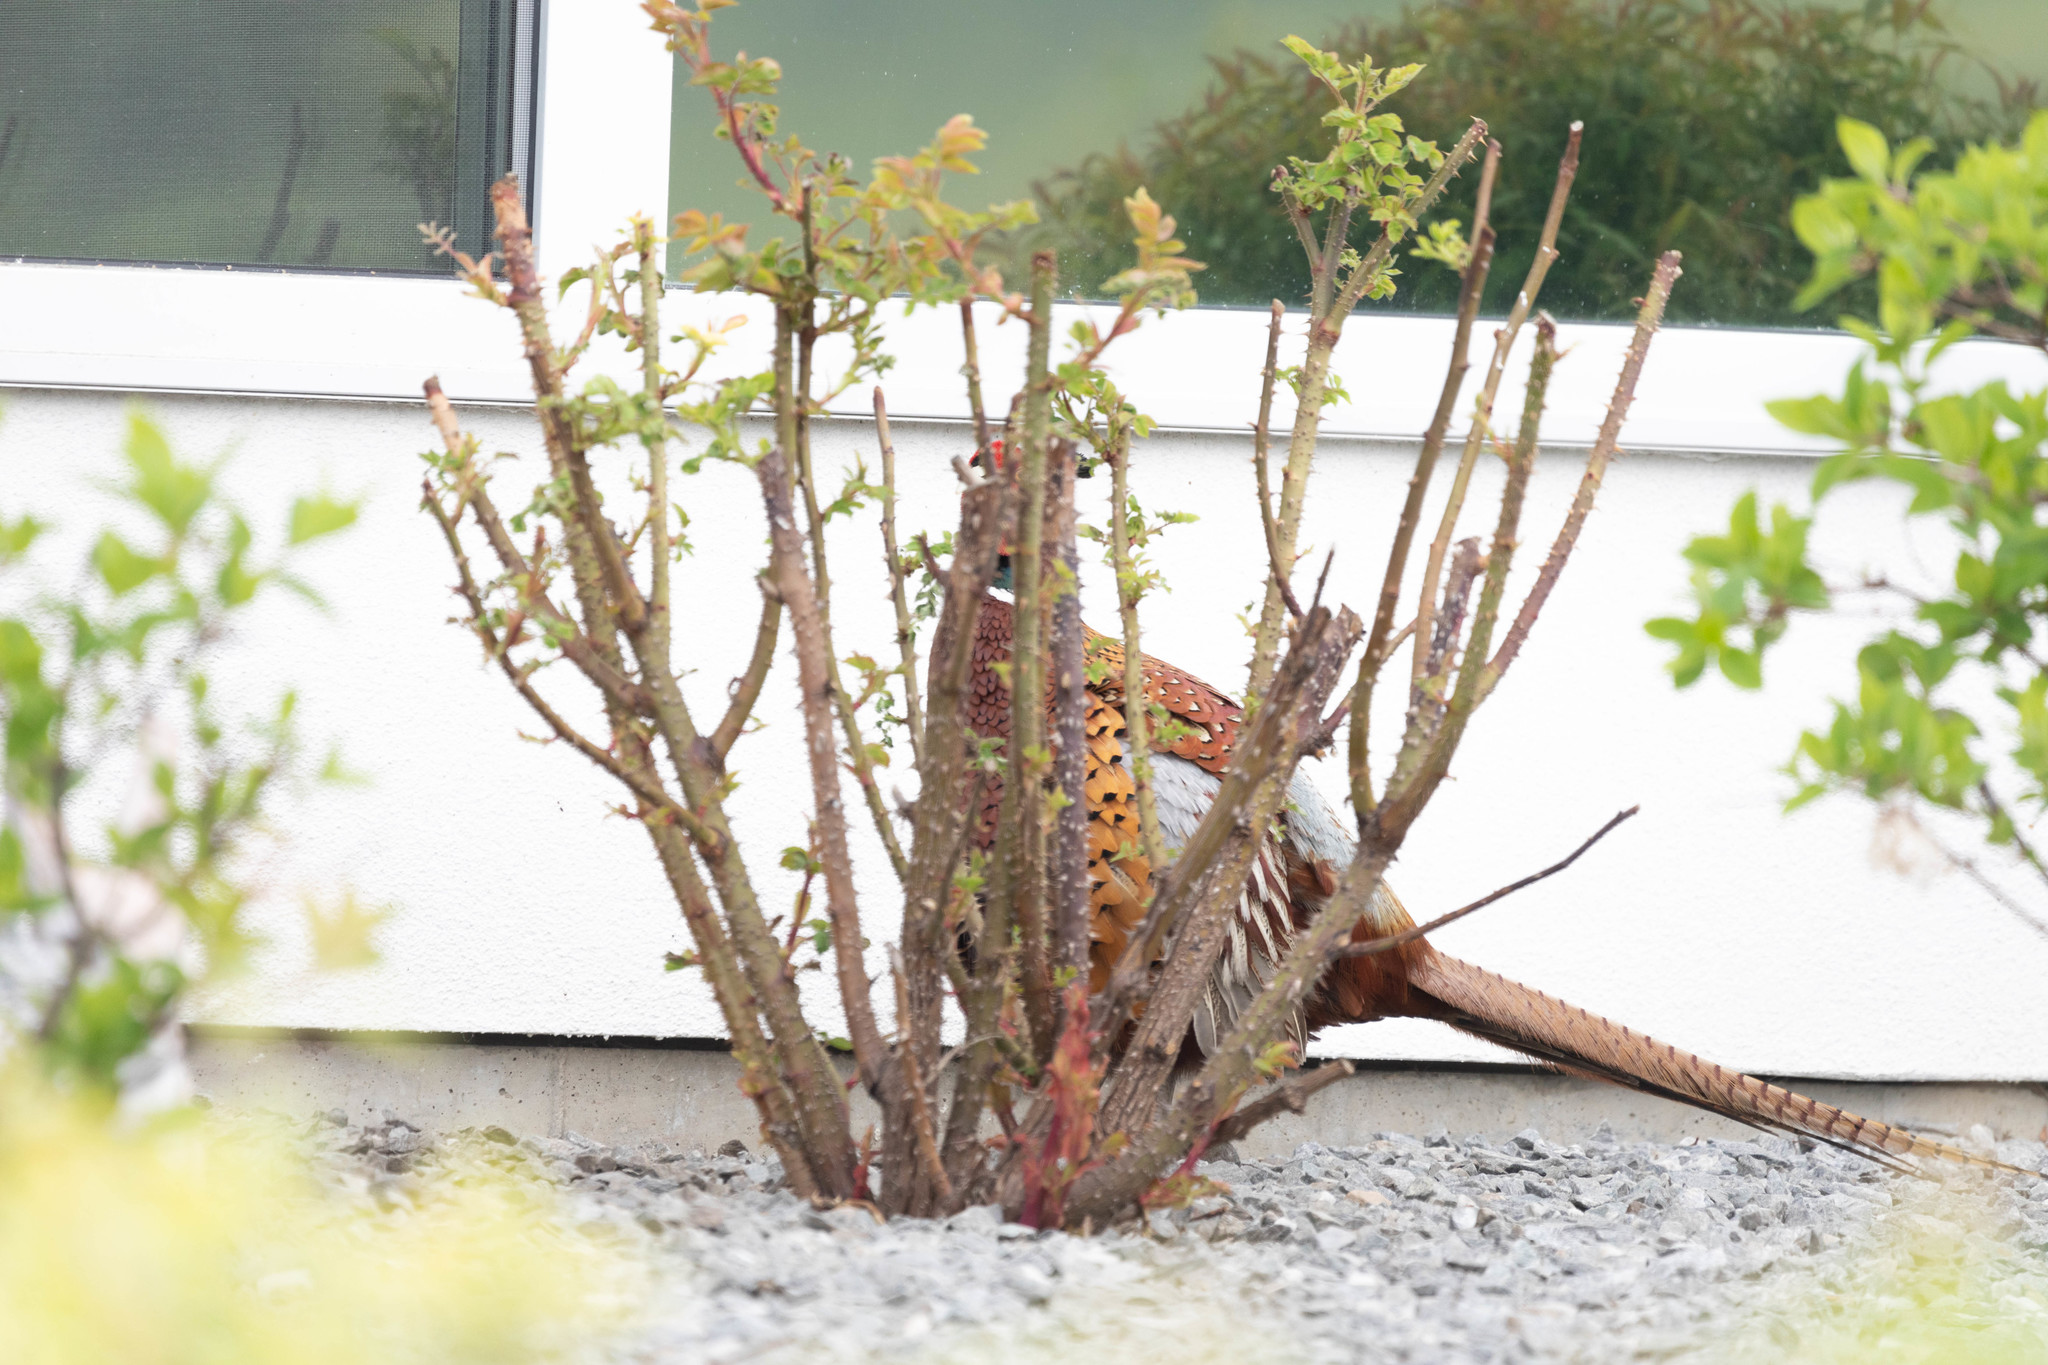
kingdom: Animalia
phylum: Chordata
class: Aves
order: Galliformes
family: Phasianidae
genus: Phasianus
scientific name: Phasianus colchicus
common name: Common pheasant
